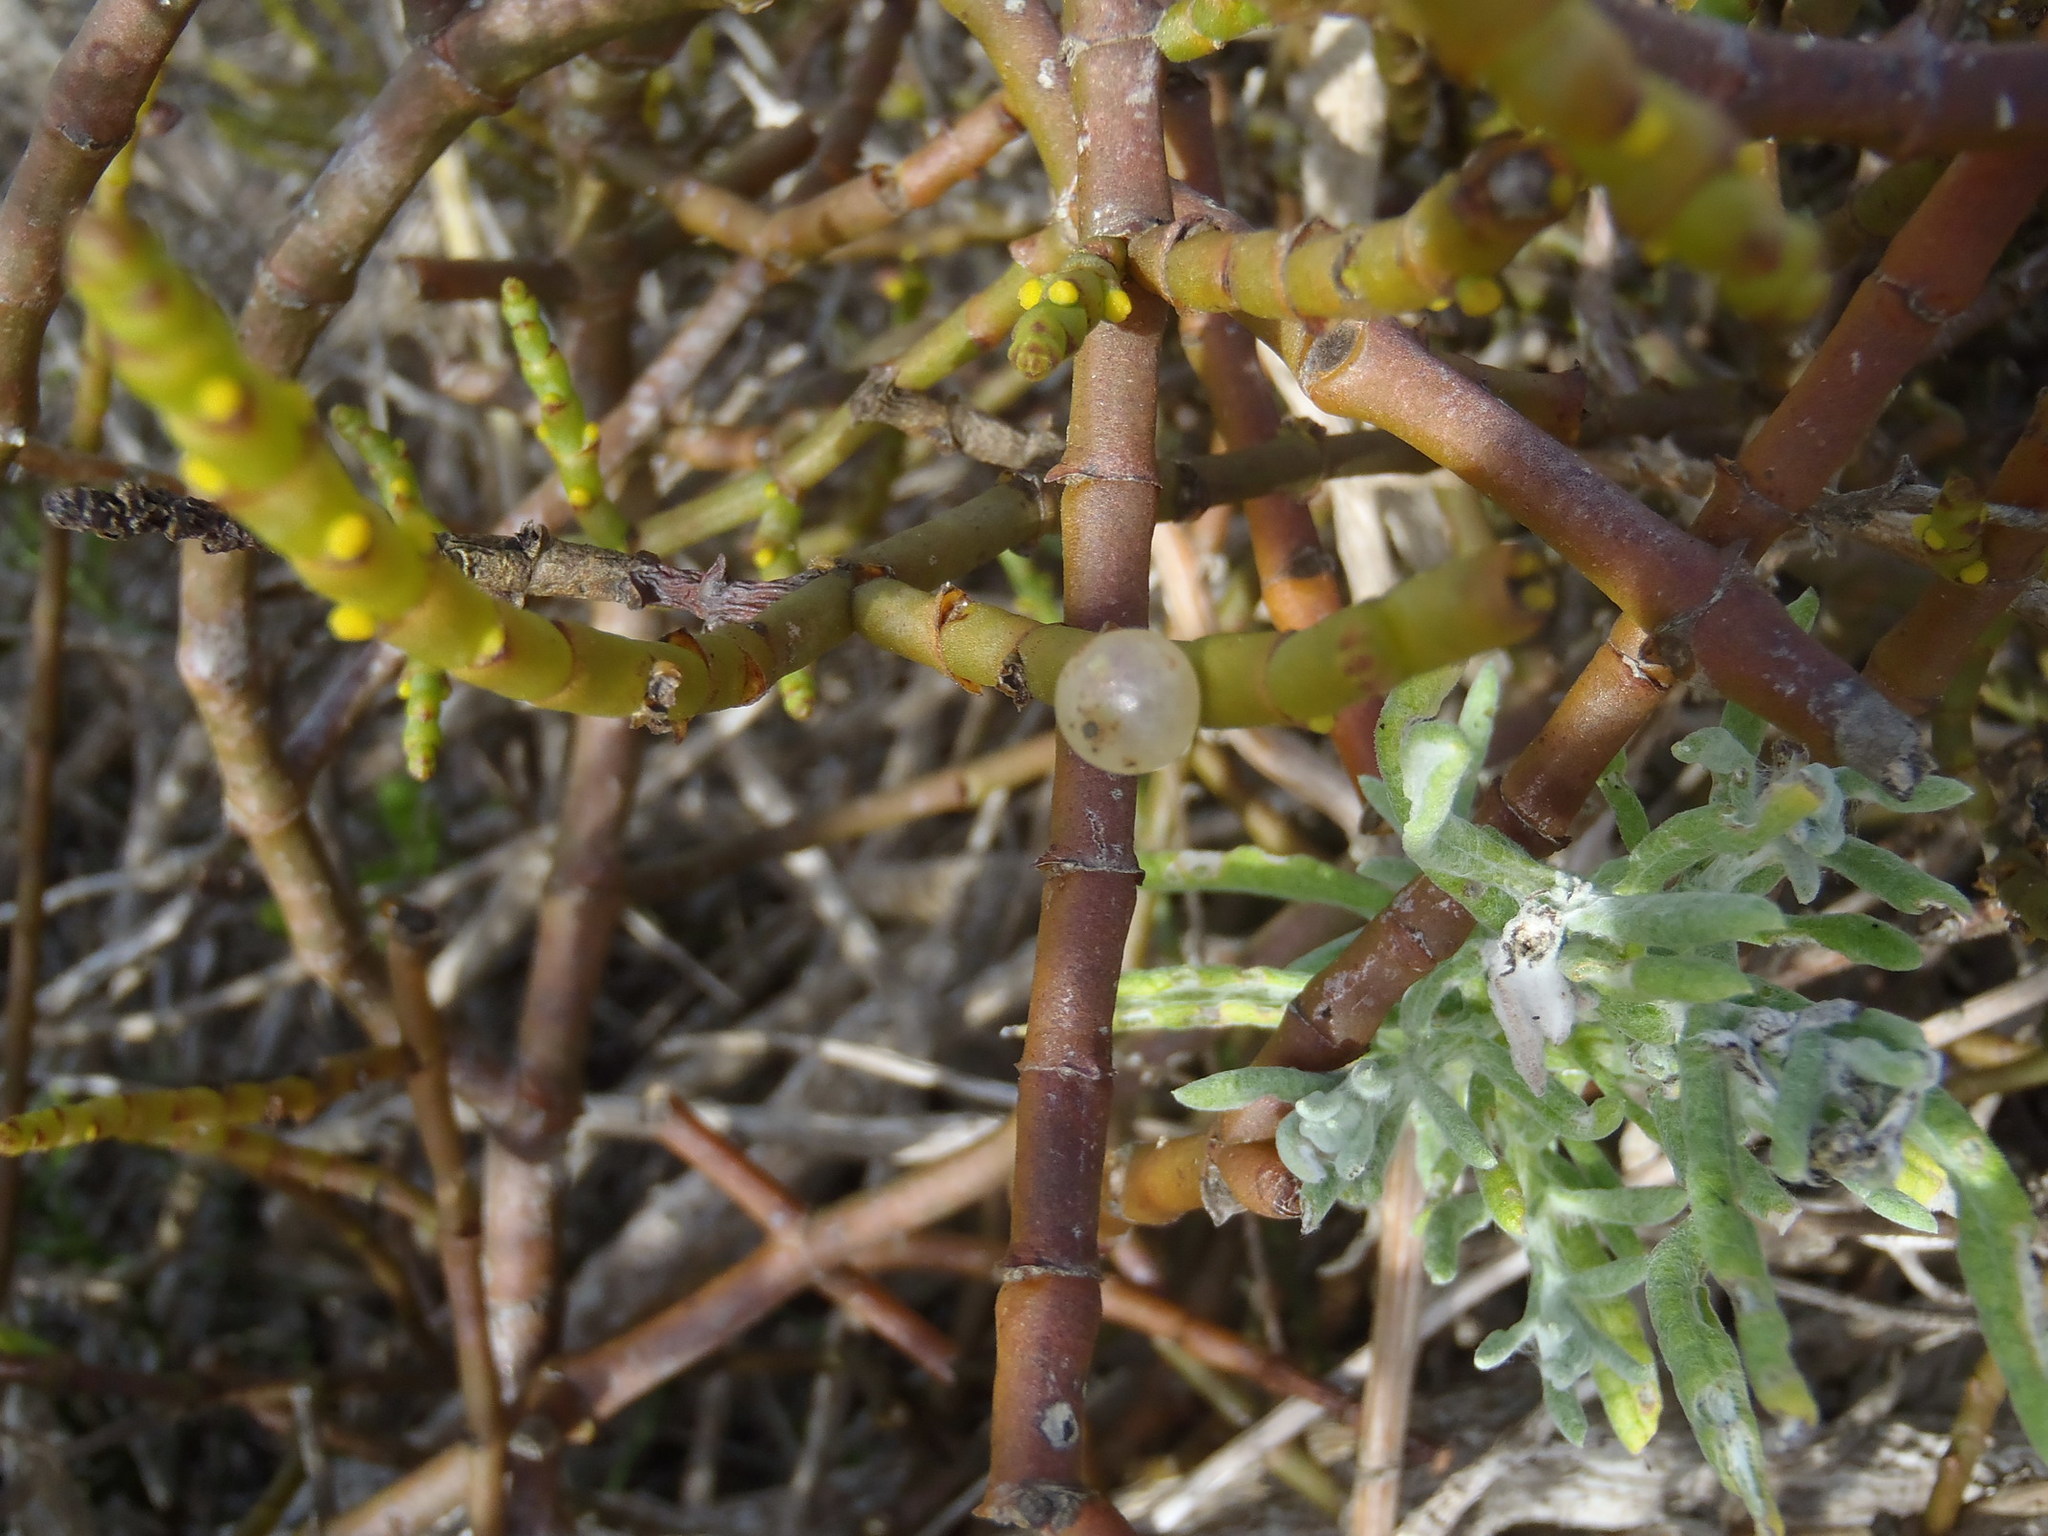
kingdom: Plantae
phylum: Tracheophyta
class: Magnoliopsida
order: Santalales
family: Viscaceae
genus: Viscum
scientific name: Viscum capense
